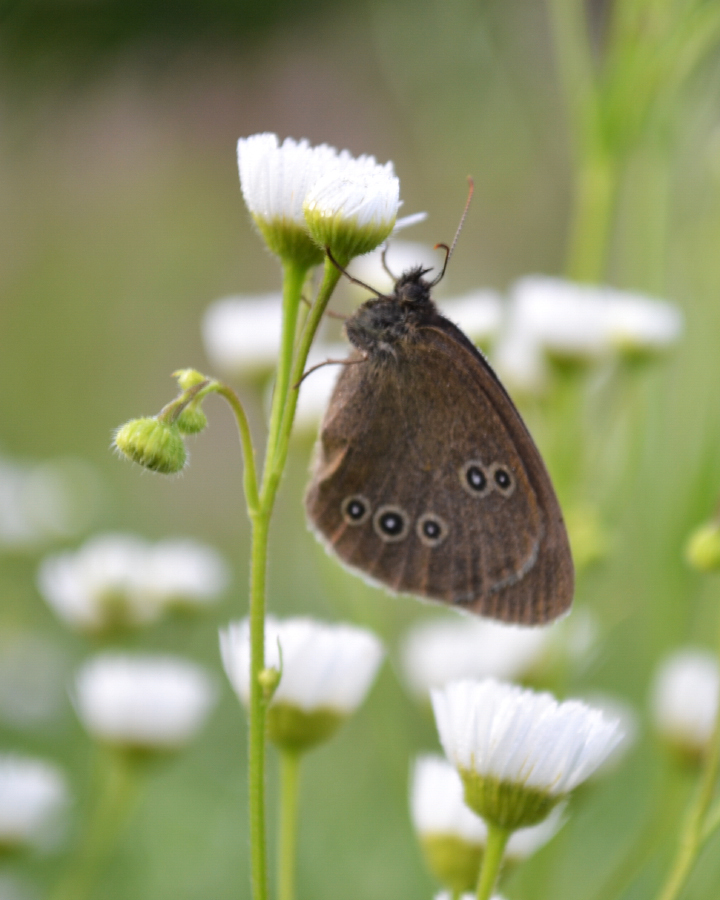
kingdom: Animalia
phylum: Arthropoda
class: Insecta
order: Lepidoptera
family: Nymphalidae
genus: Aphantopus
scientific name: Aphantopus hyperantus
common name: Ringlet
